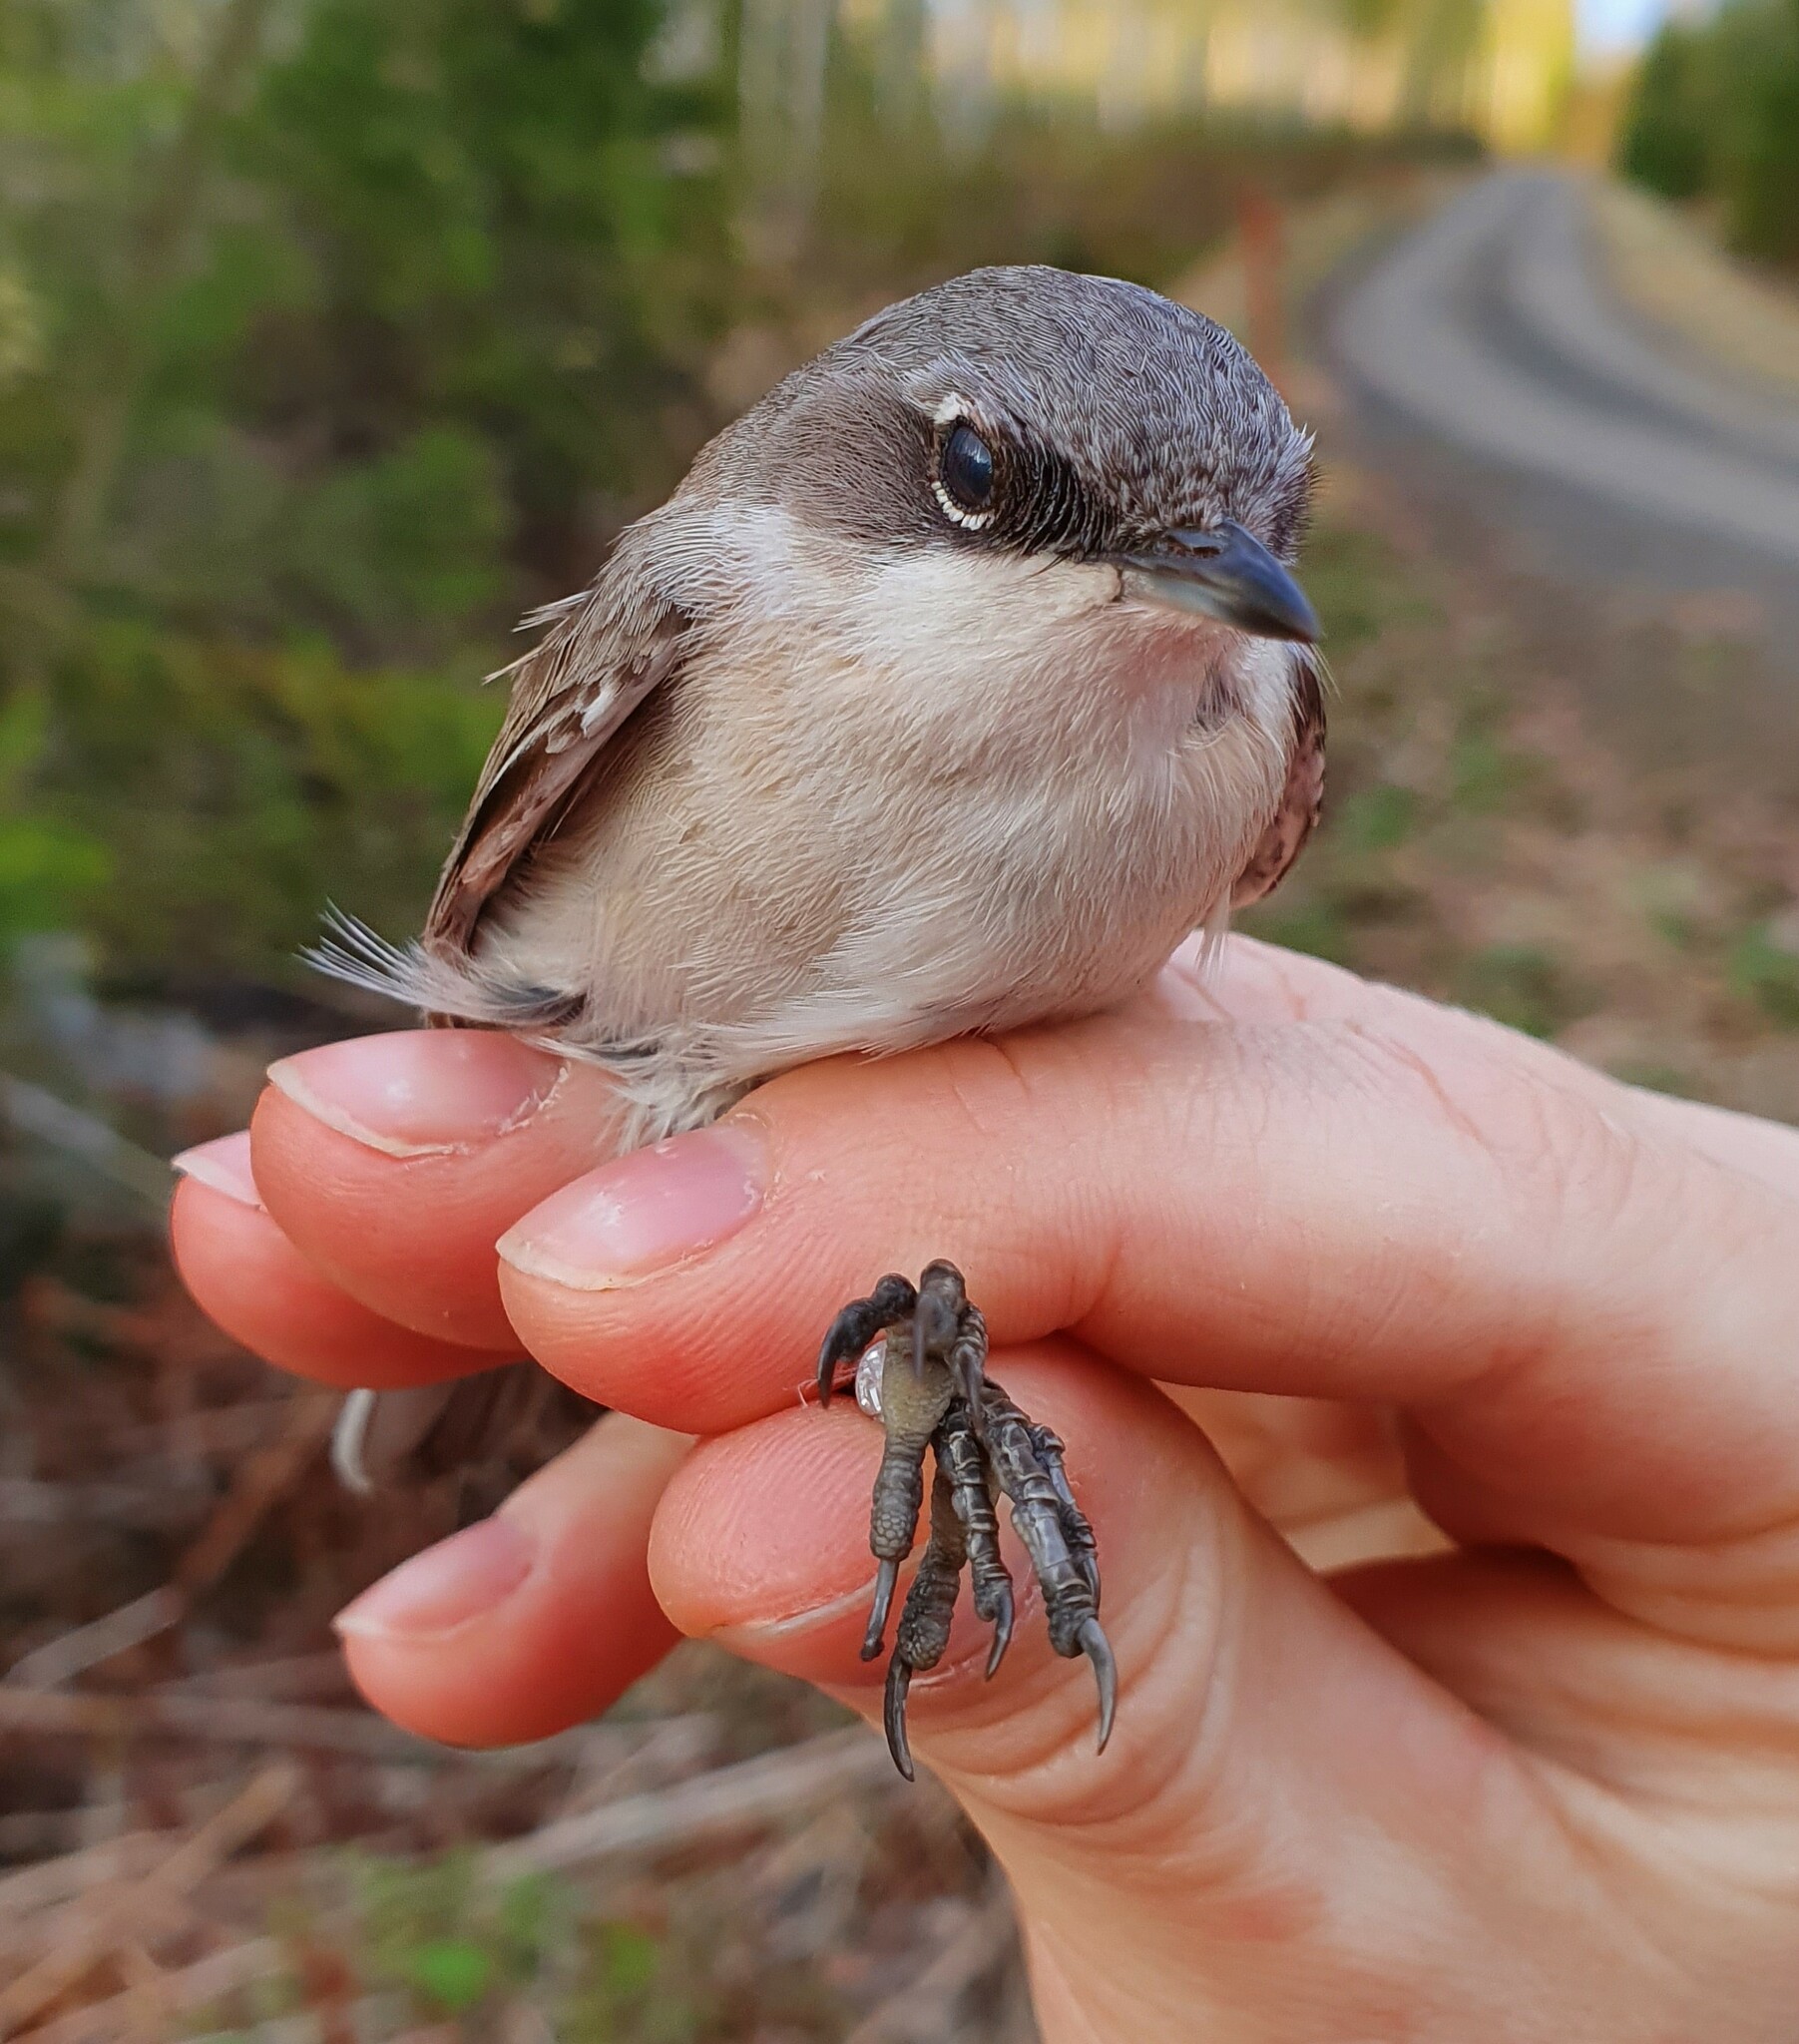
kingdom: Animalia
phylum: Chordata
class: Aves
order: Passeriformes
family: Sylviidae
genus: Sylvia
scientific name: Sylvia curruca
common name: Lesser whitethroat
